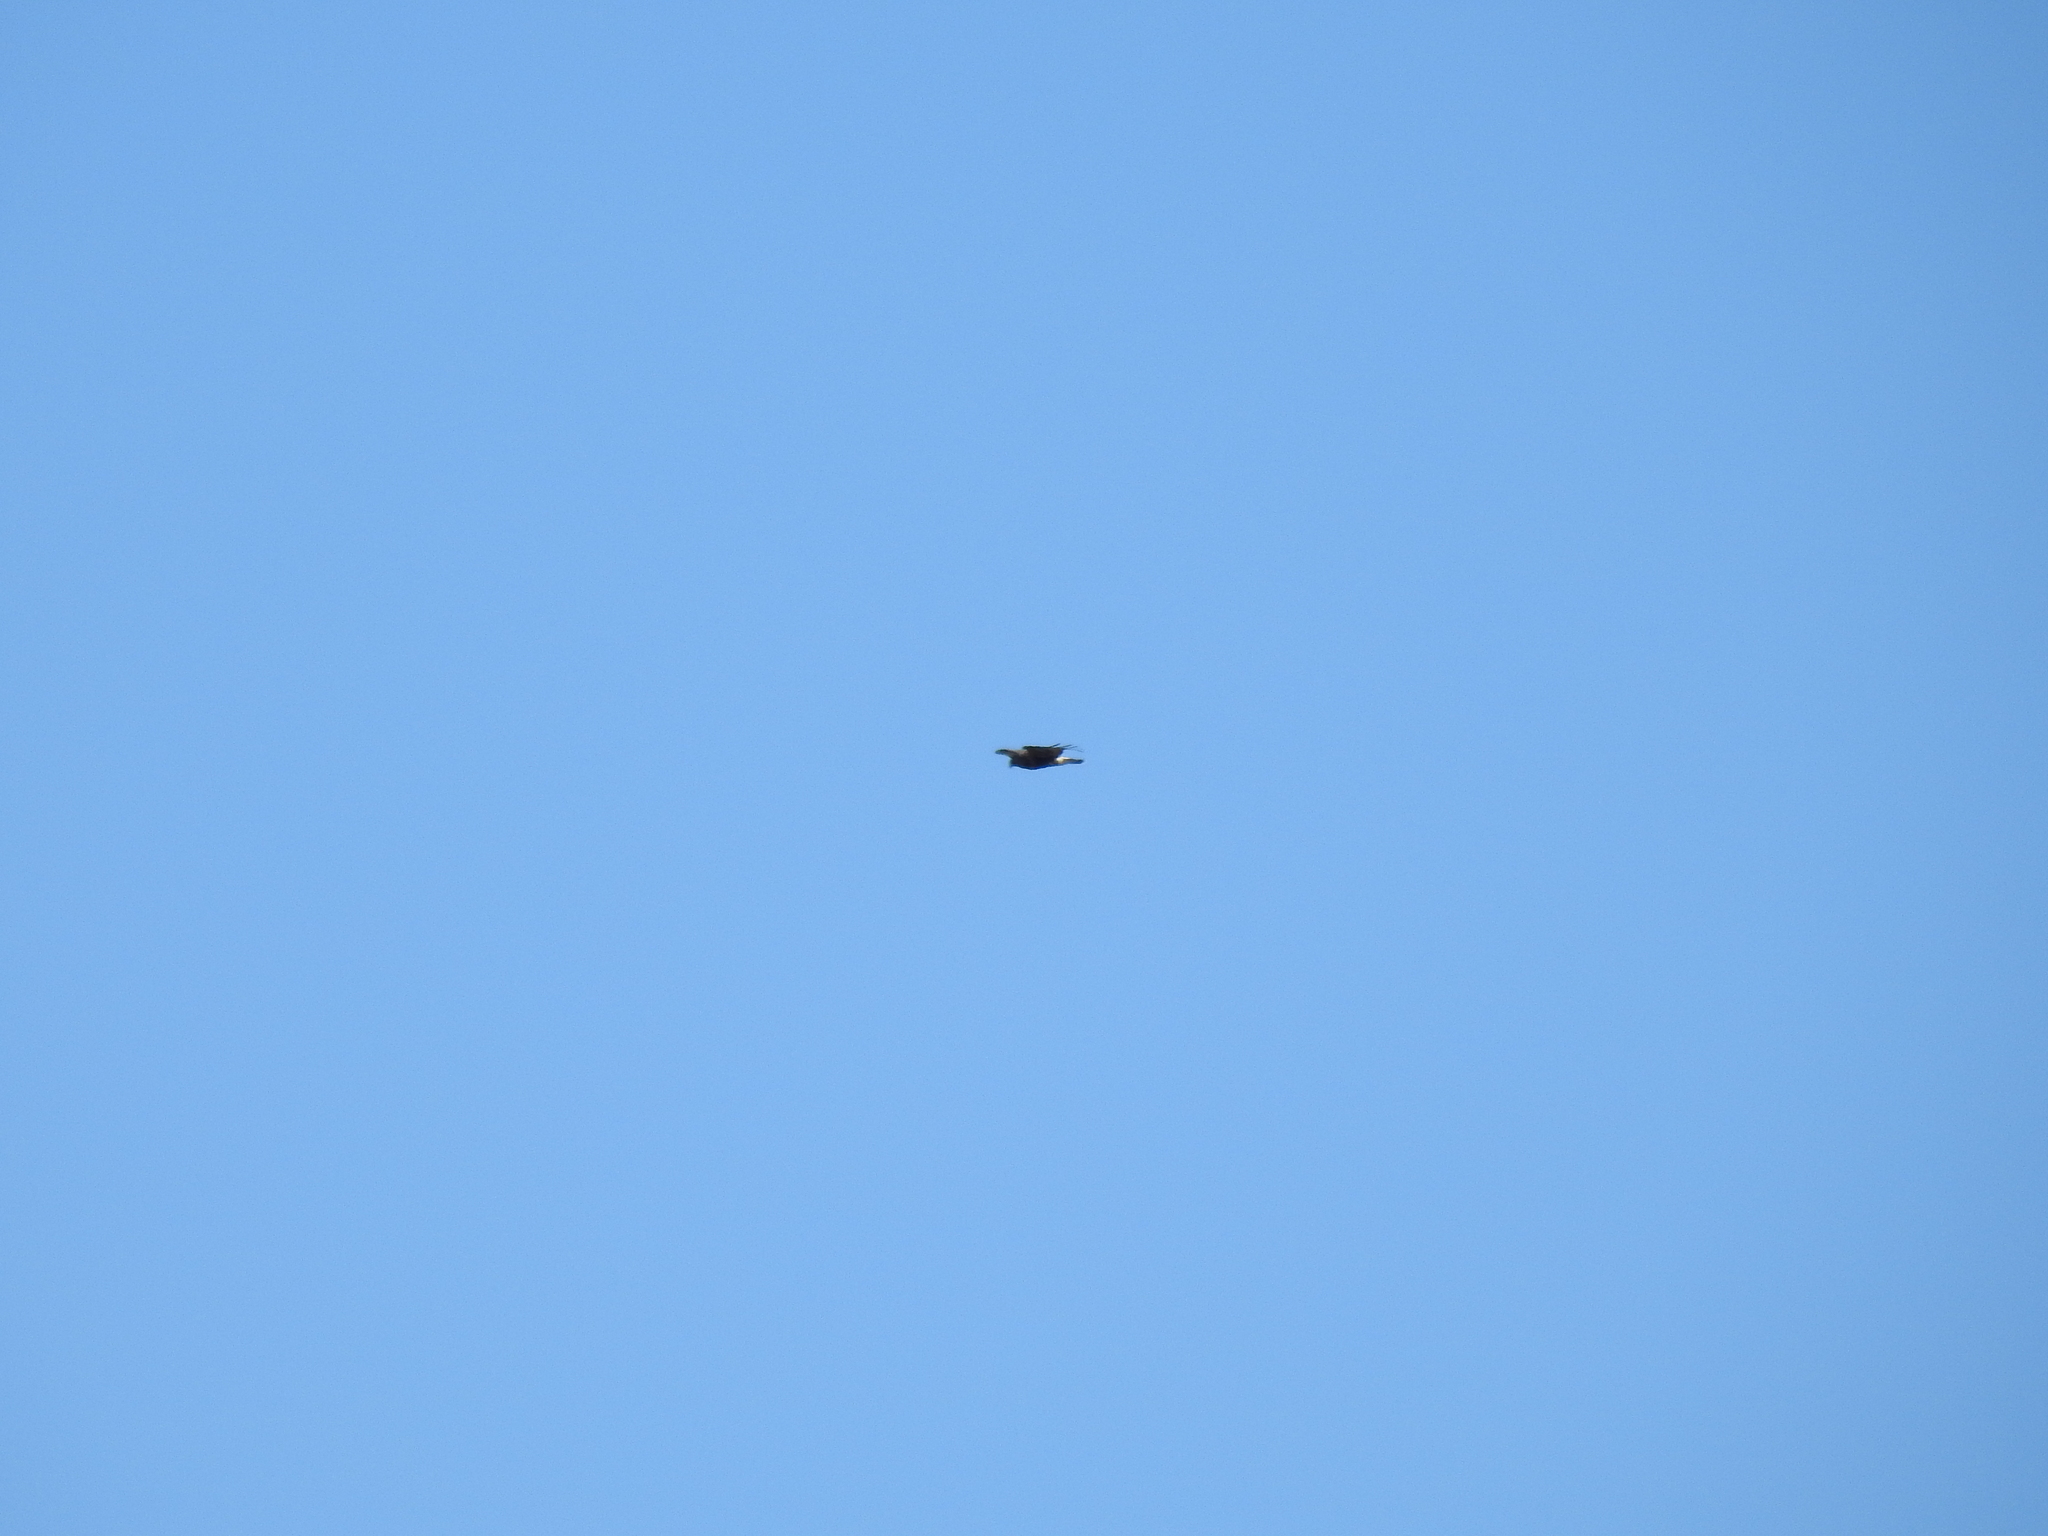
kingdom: Animalia
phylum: Chordata
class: Aves
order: Accipitriformes
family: Accipitridae
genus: Buteo
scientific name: Buteo lagopus
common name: Rough-legged buzzard
